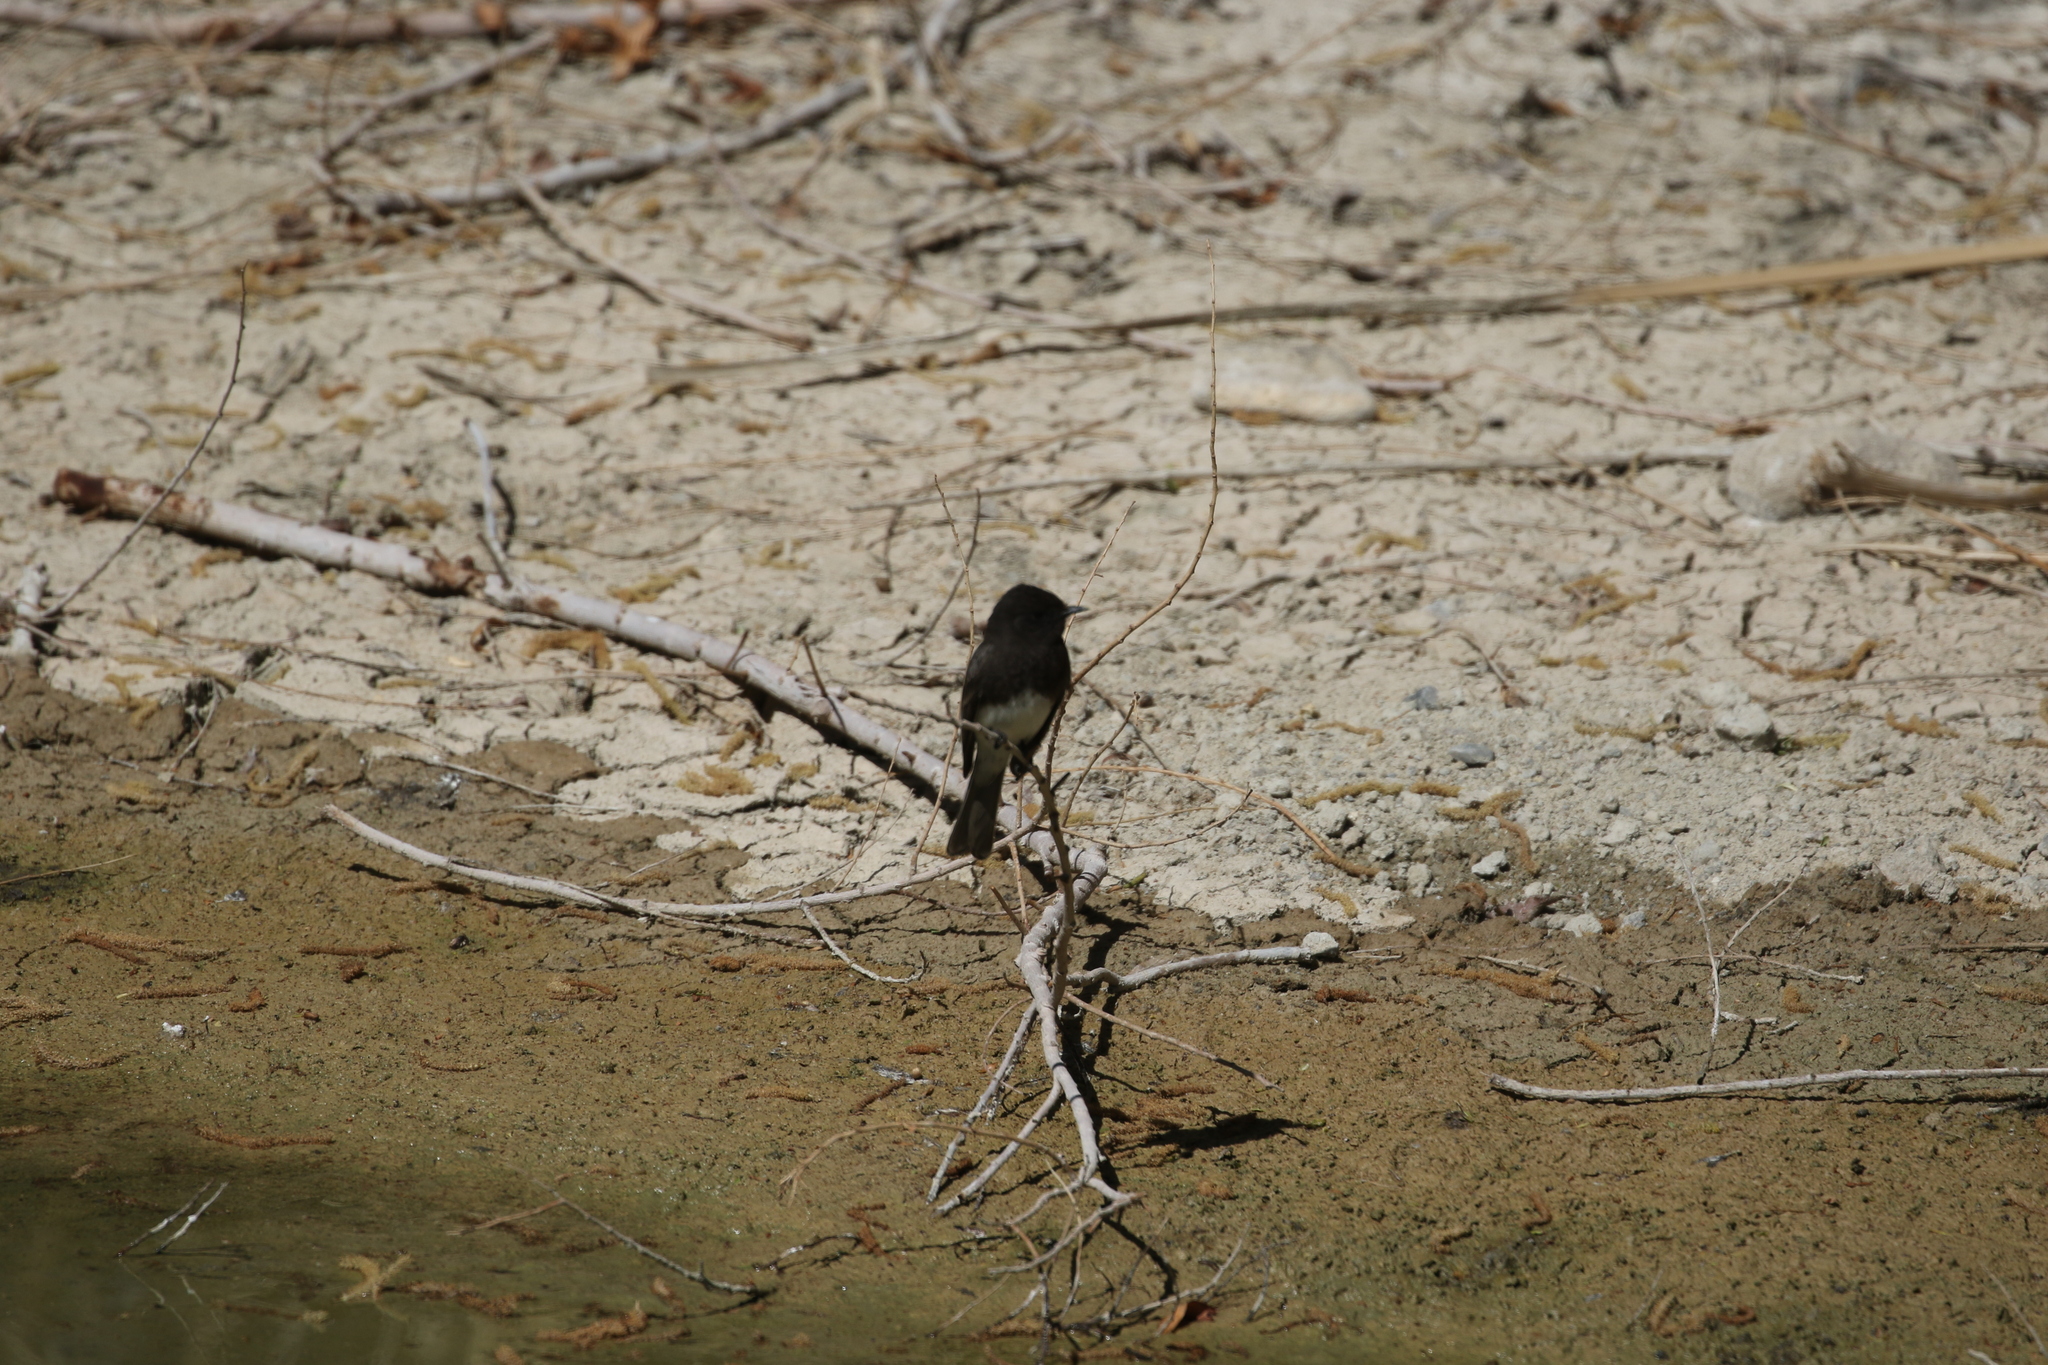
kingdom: Animalia
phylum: Chordata
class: Aves
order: Passeriformes
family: Tyrannidae
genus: Sayornis
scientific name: Sayornis nigricans
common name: Black phoebe
